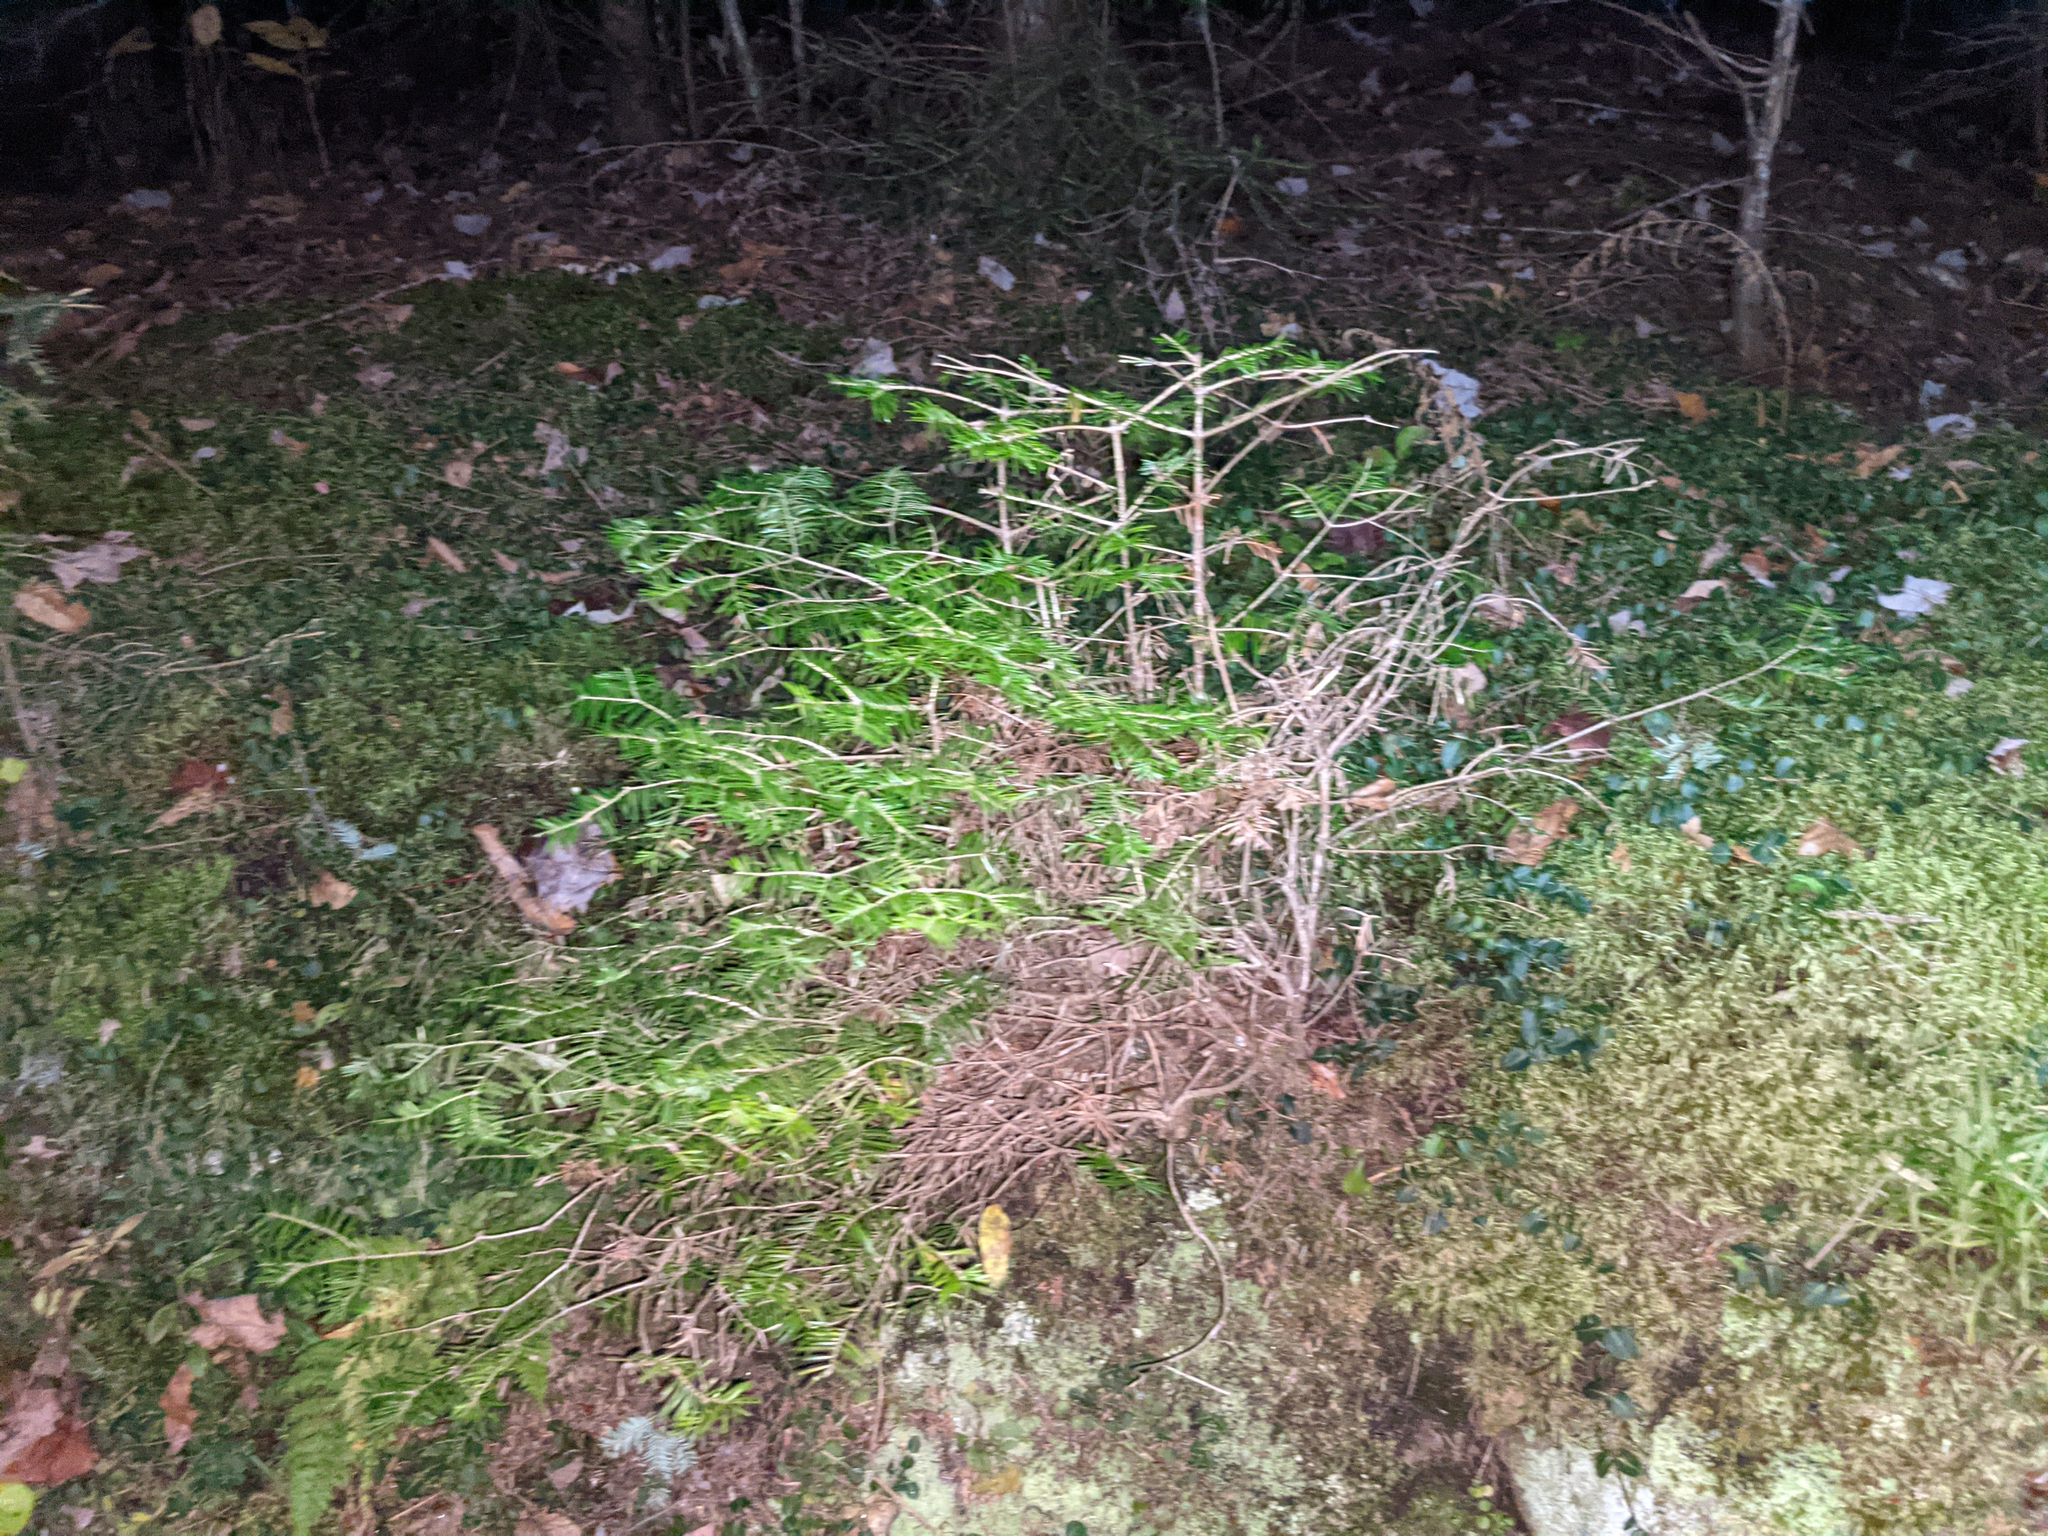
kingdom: Plantae
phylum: Tracheophyta
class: Pinopsida
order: Pinales
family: Pinaceae
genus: Abies
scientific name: Abies balsamea
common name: Balsam fir
